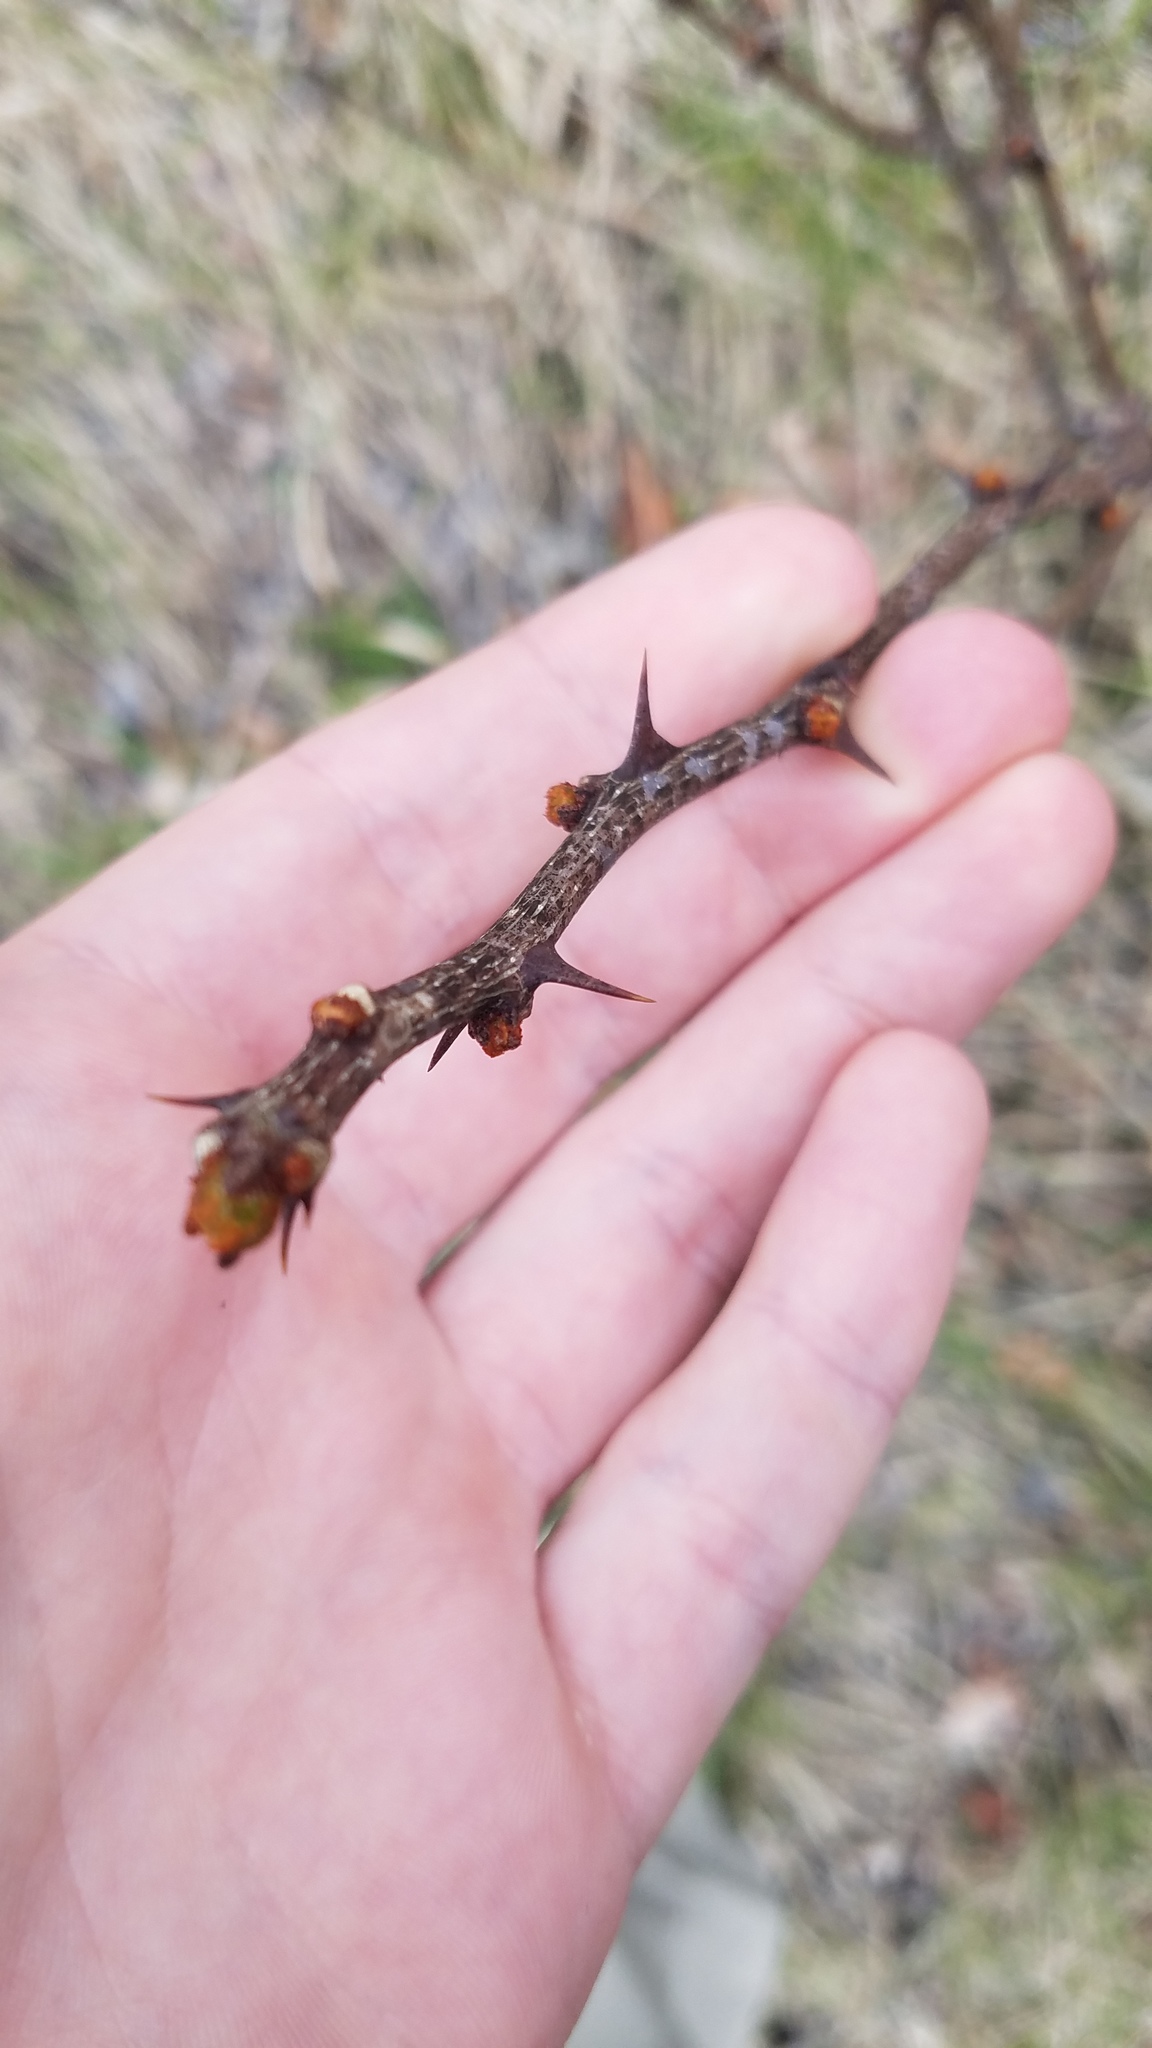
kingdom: Plantae
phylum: Tracheophyta
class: Magnoliopsida
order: Sapindales
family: Rutaceae
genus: Zanthoxylum
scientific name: Zanthoxylum americanum
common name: Northern prickly-ash
